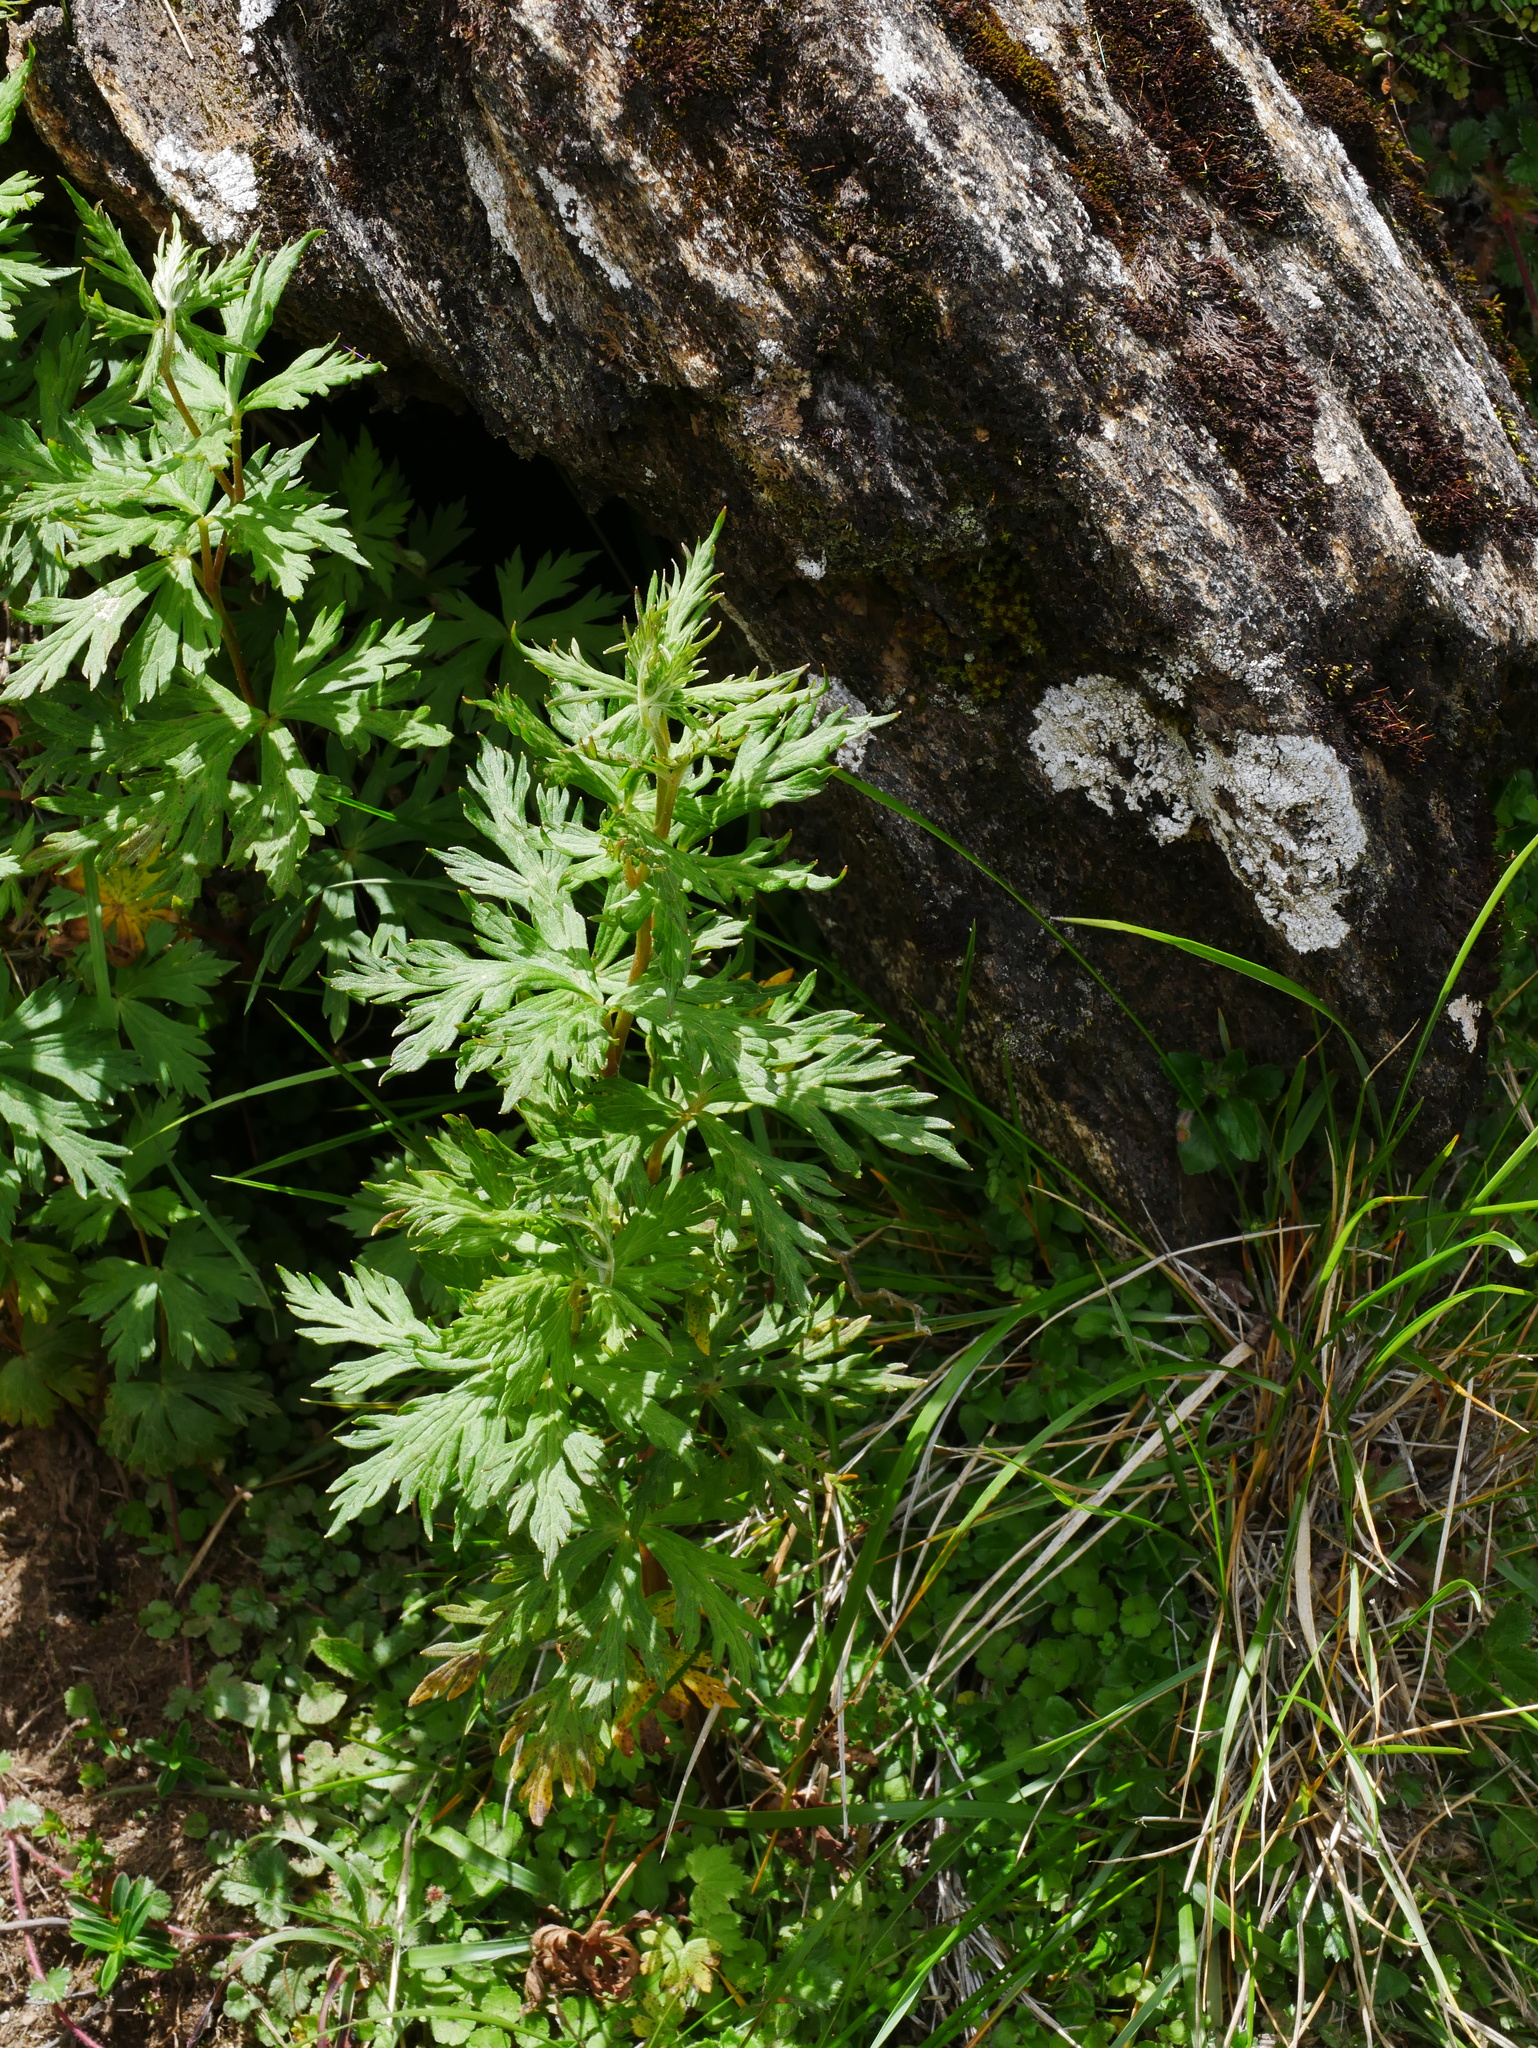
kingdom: Plantae
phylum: Tracheophyta
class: Magnoliopsida
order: Ranunculales
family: Ranunculaceae
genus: Aconitum
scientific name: Aconitum fukutomei
